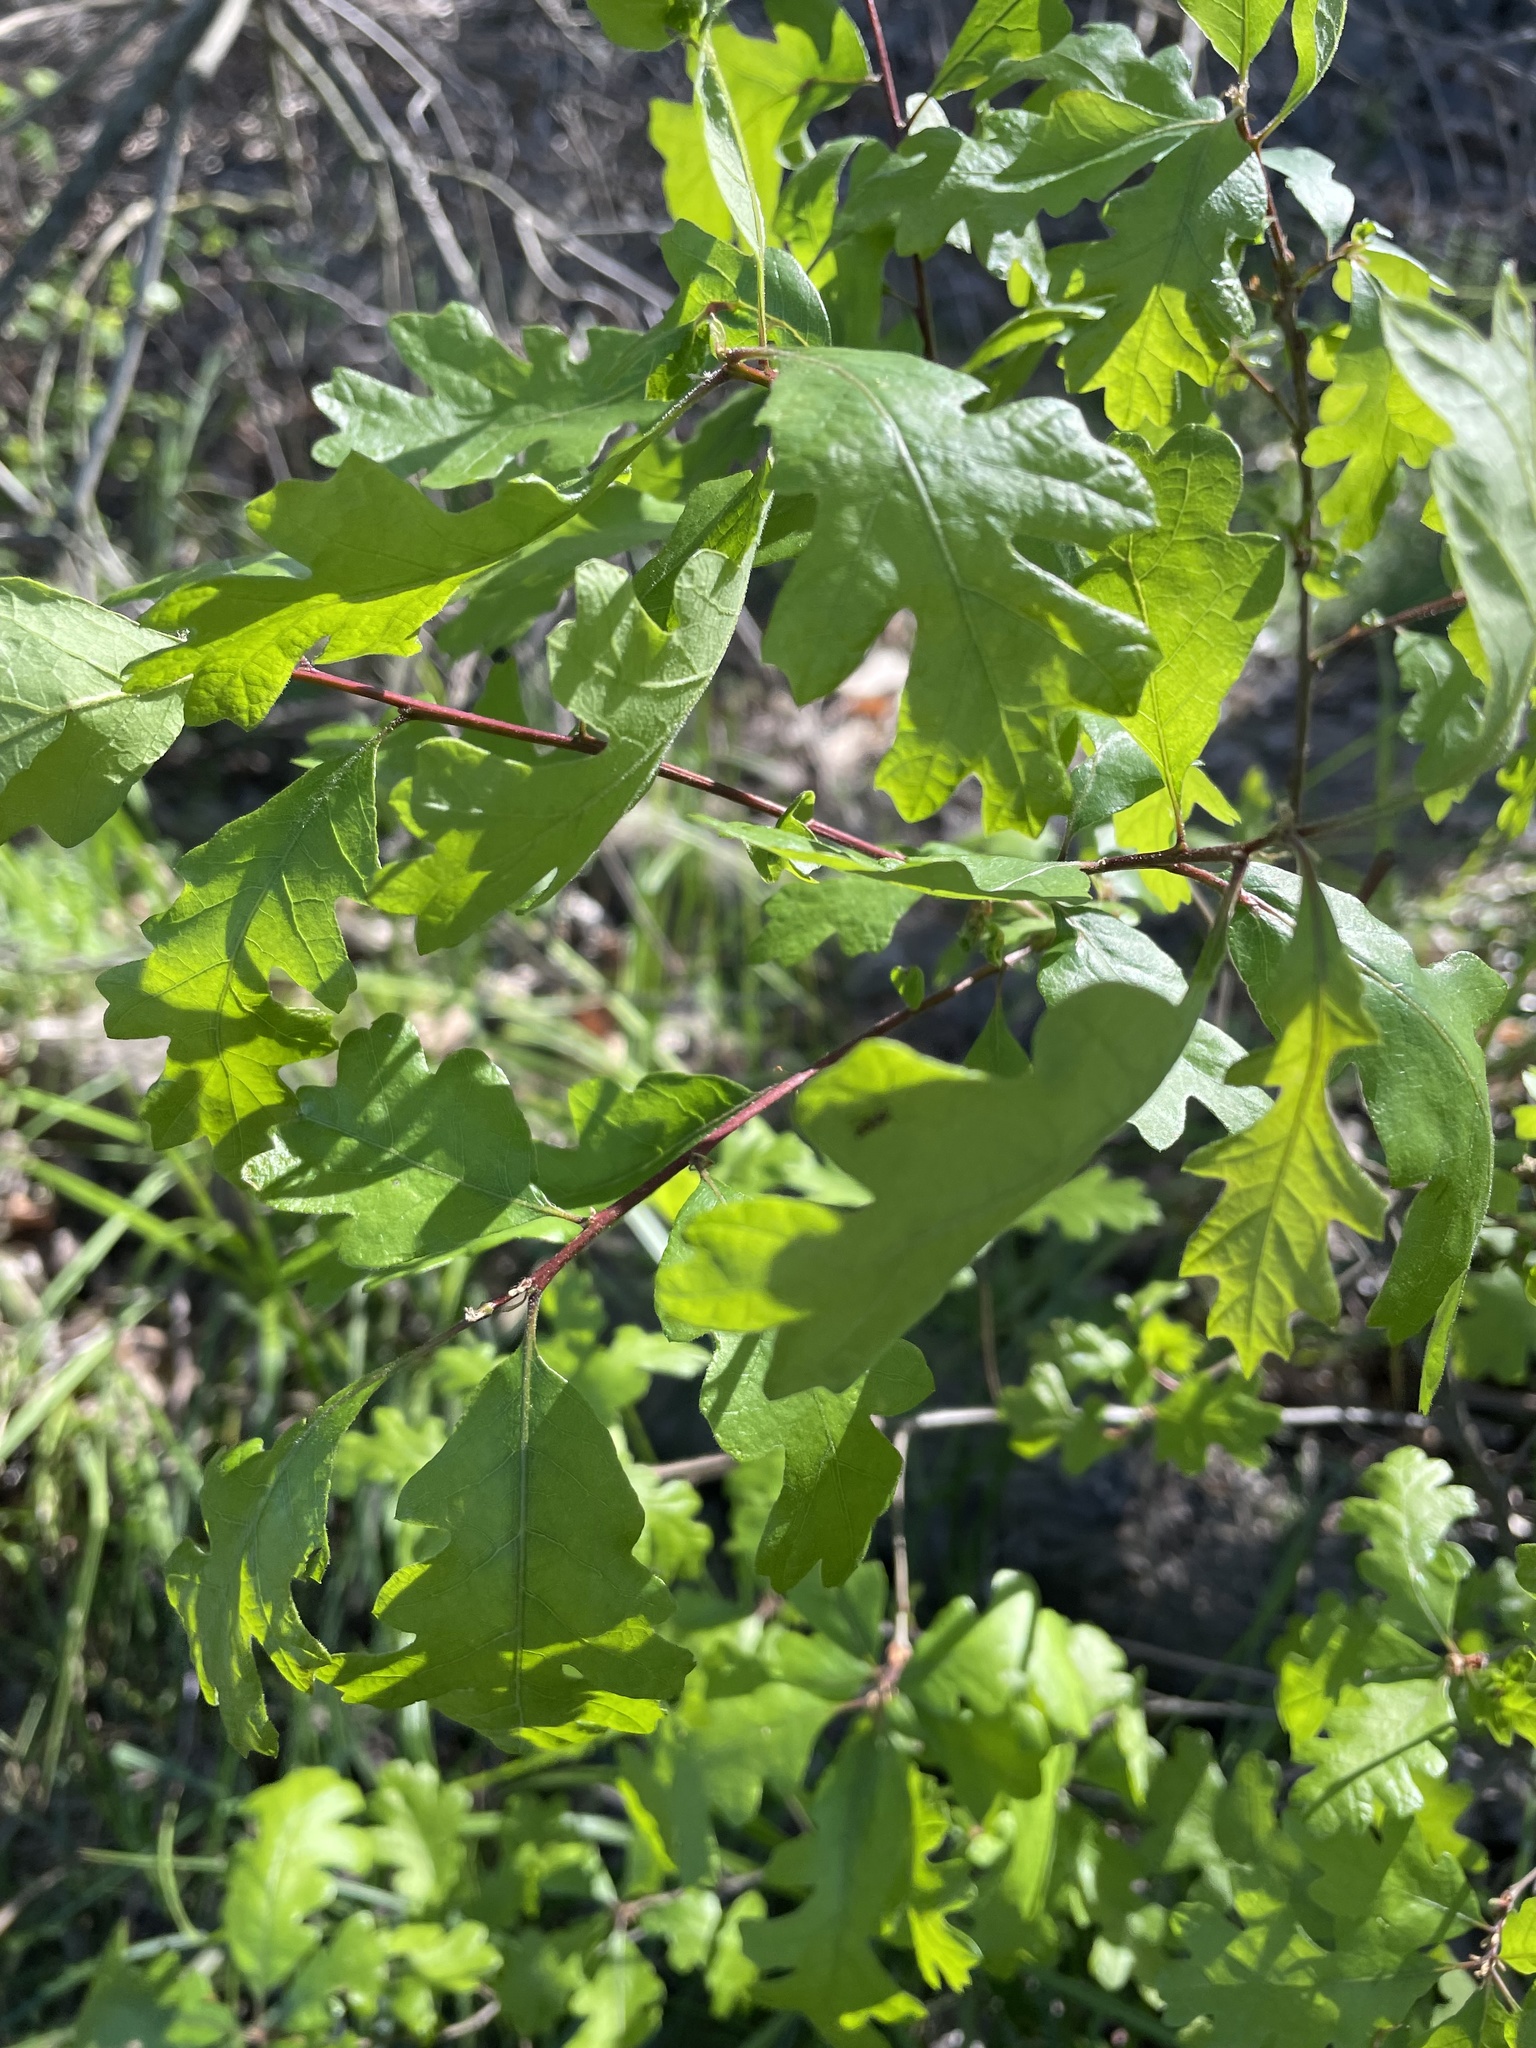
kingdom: Plantae
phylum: Tracheophyta
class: Magnoliopsida
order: Fagales
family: Fagaceae
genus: Quercus
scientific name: Quercus lobata
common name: Valley oak
